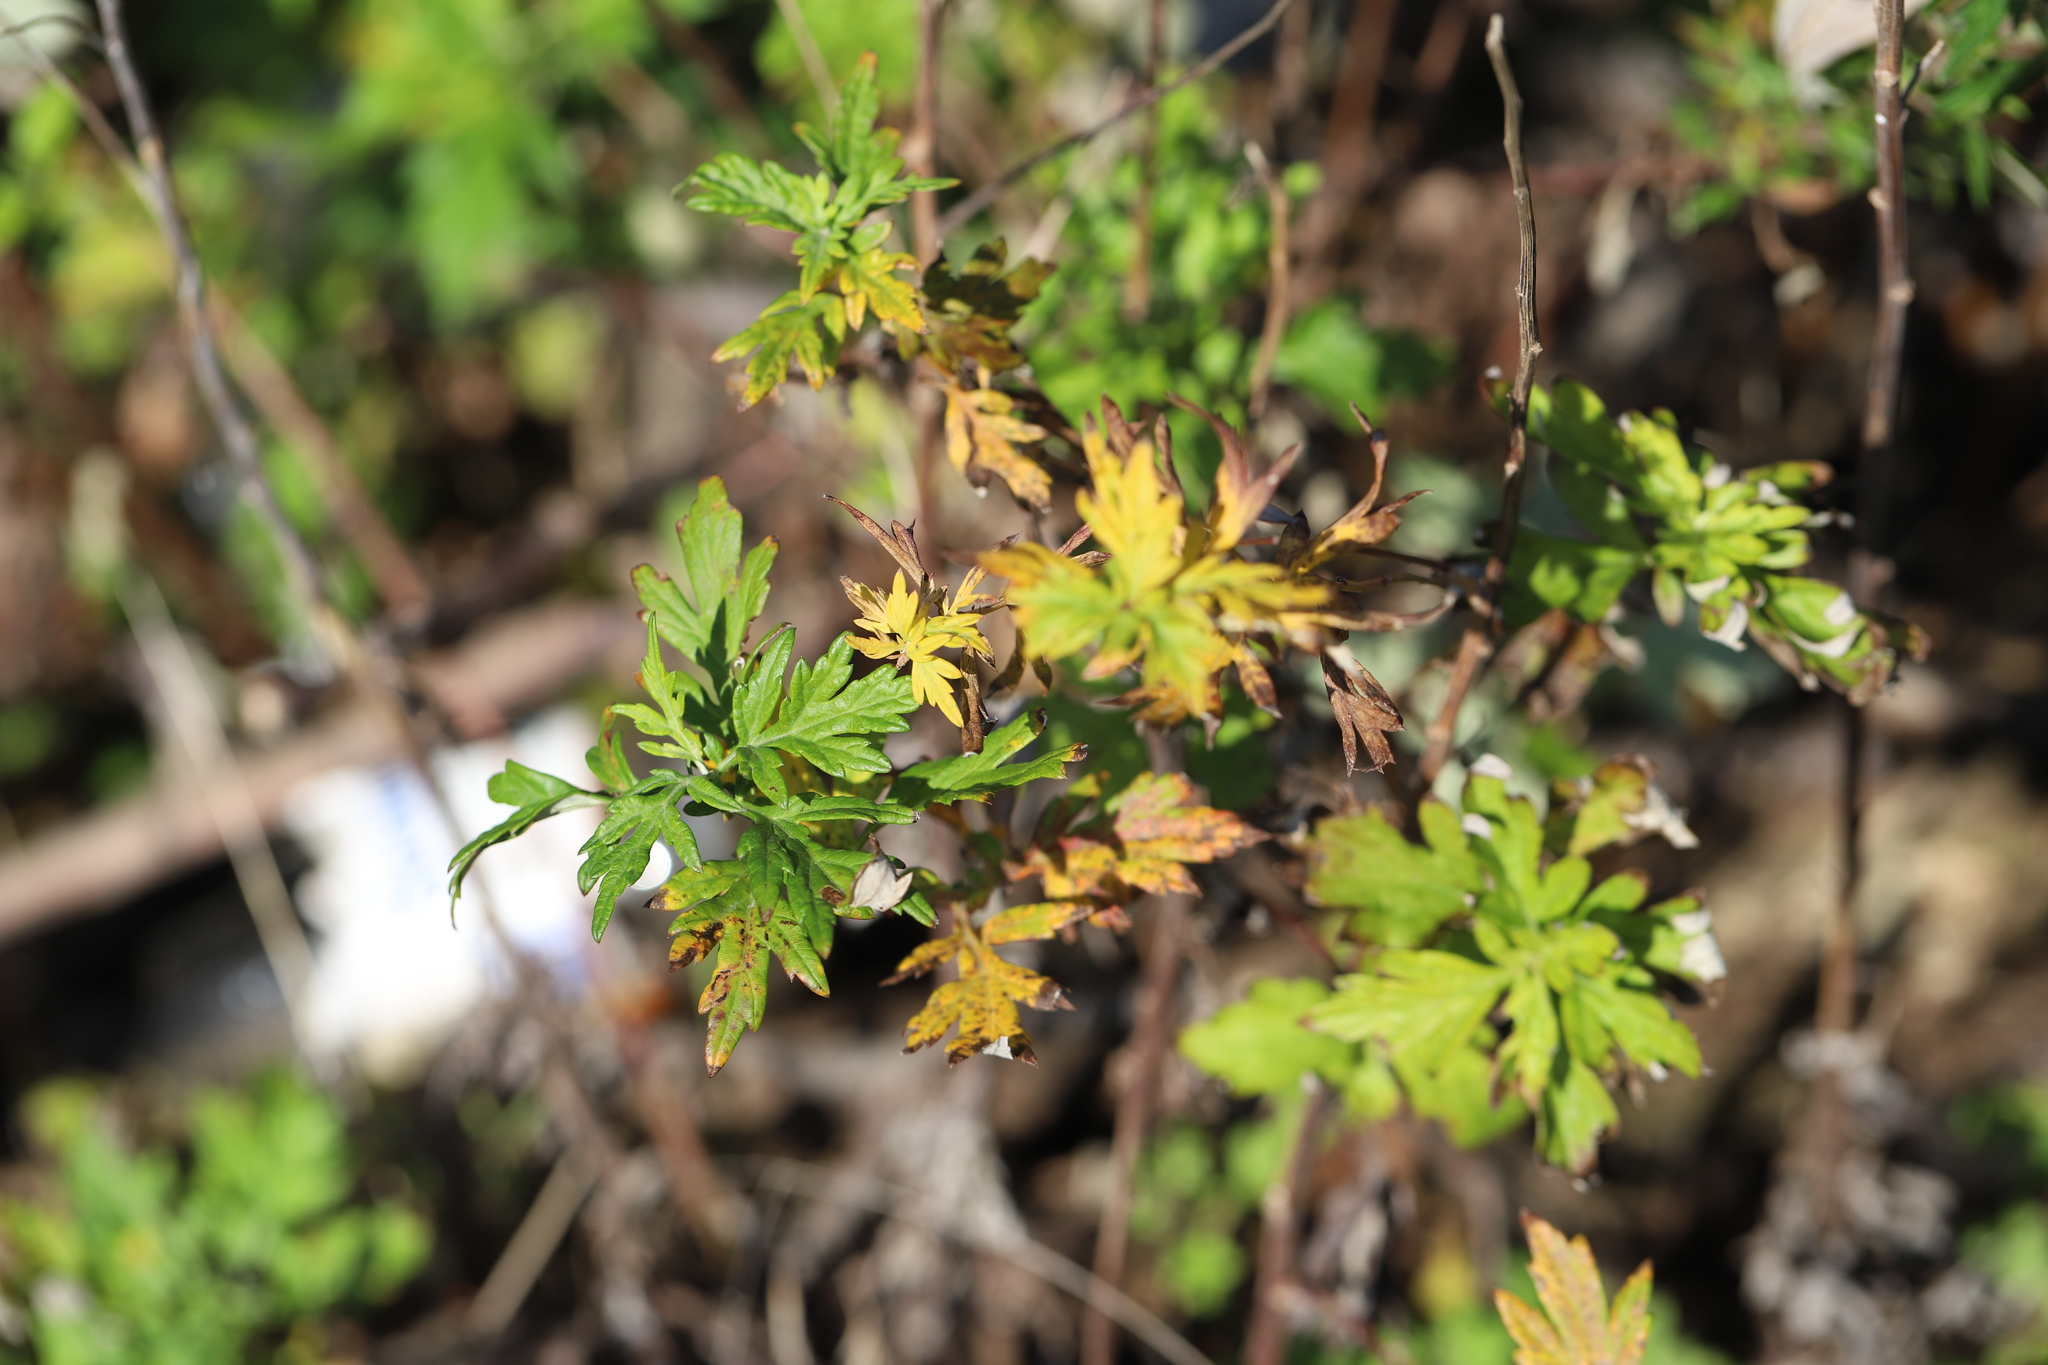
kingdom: Plantae
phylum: Tracheophyta
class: Magnoliopsida
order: Asterales
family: Asteraceae
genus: Artemisia
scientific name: Artemisia vulgaris
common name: Mugwort
